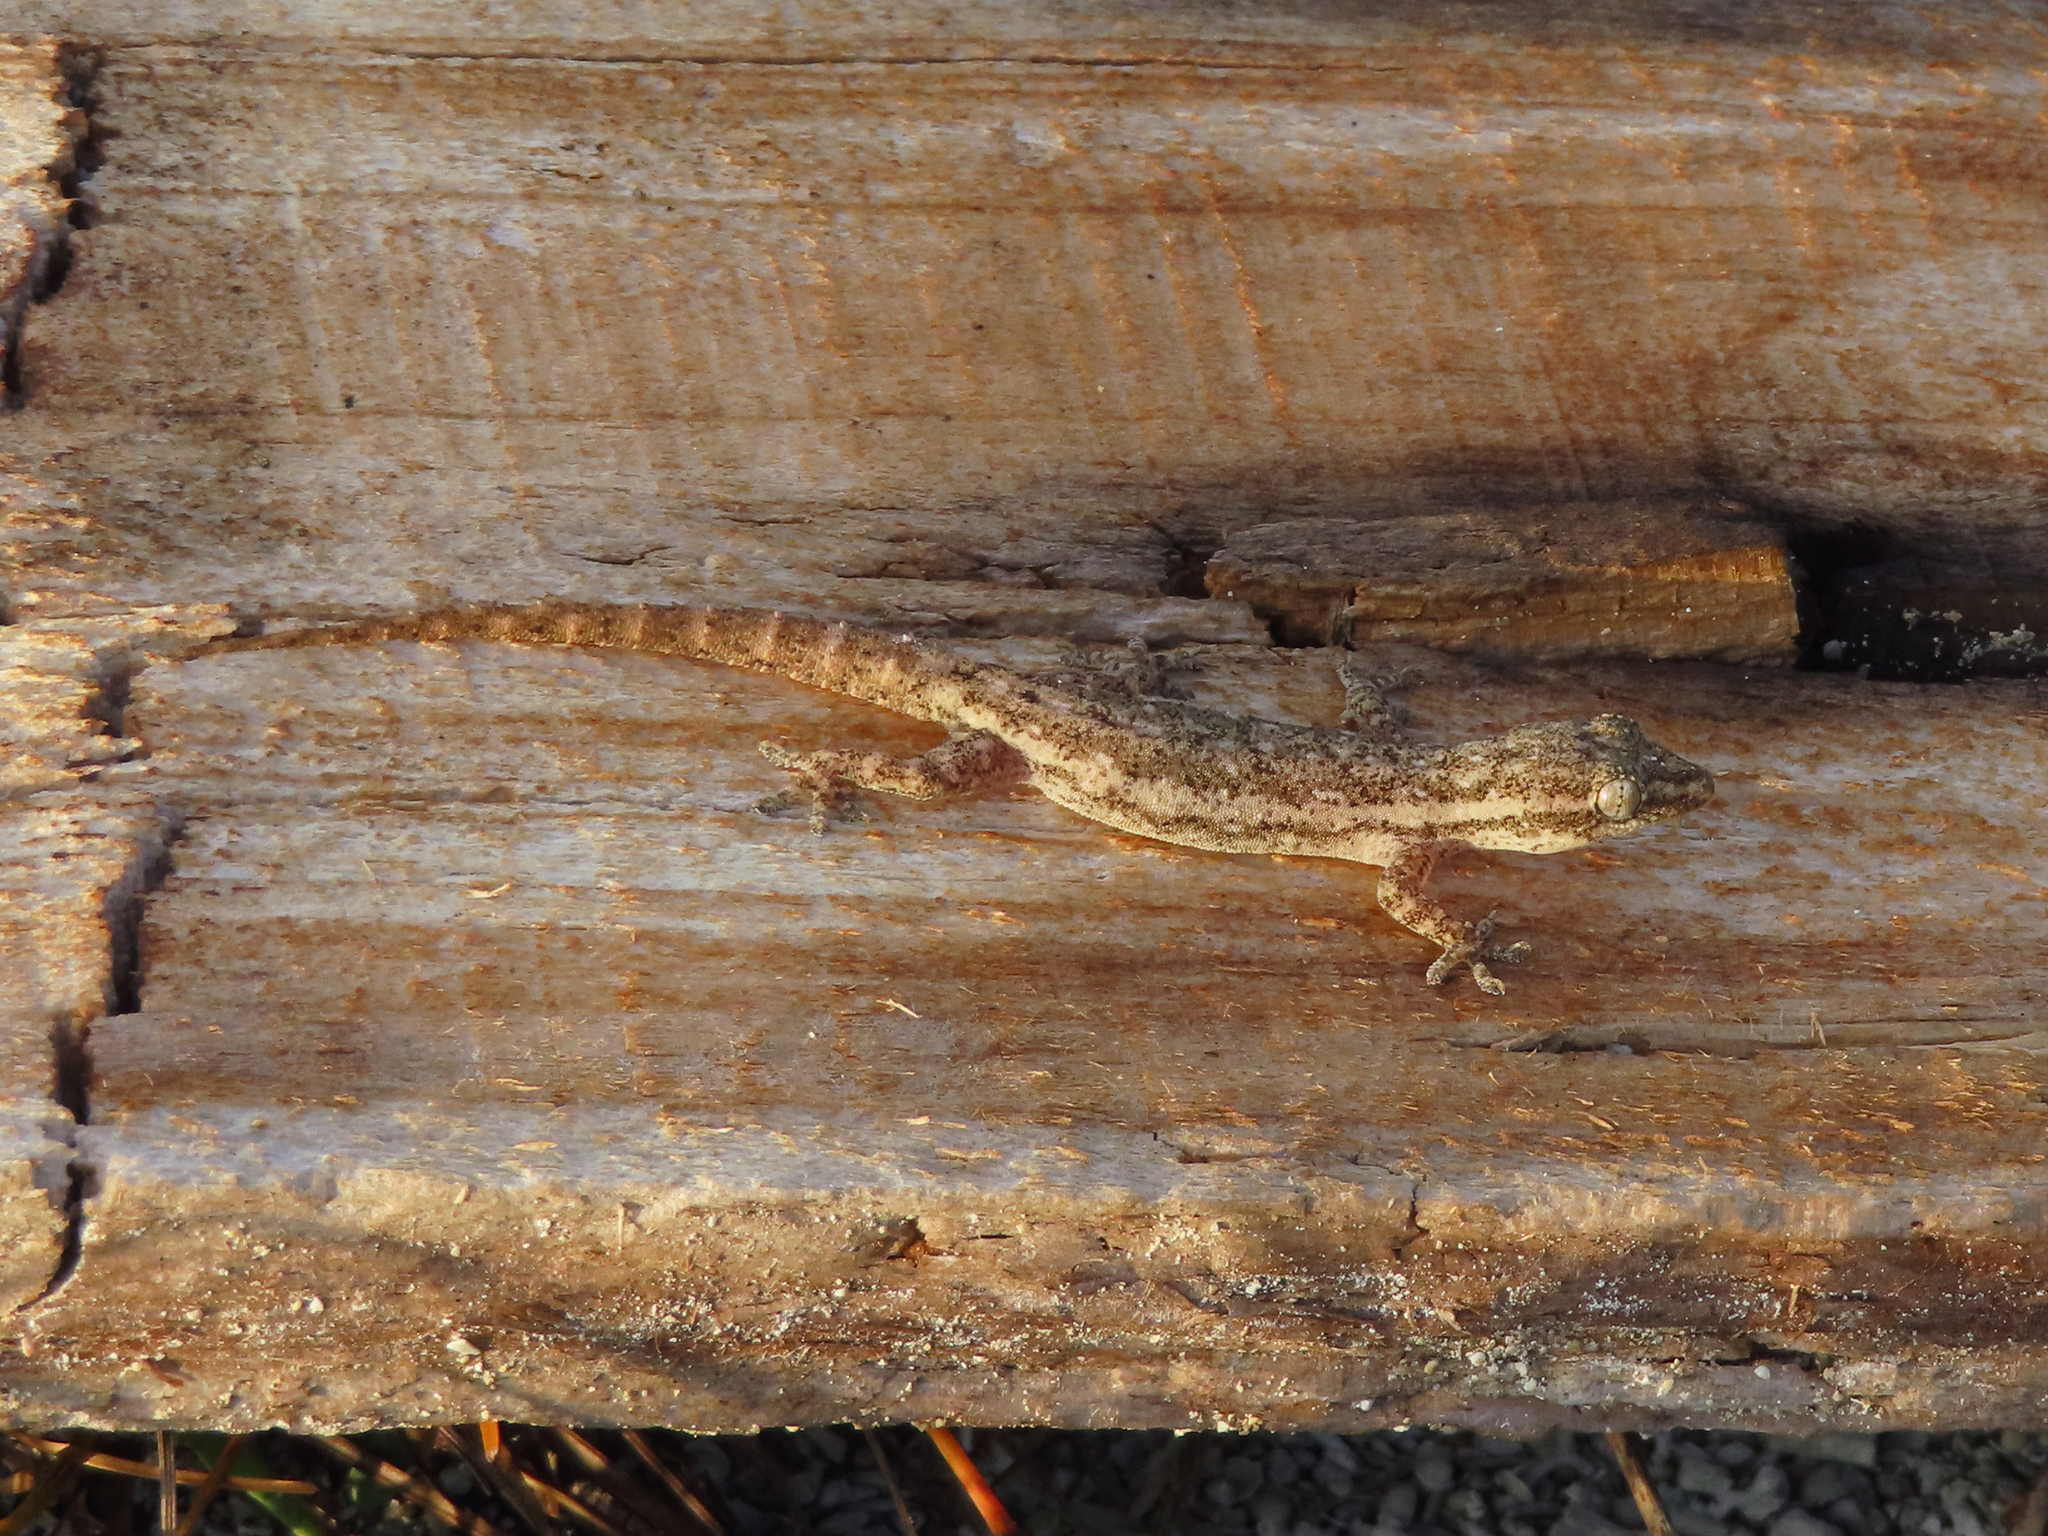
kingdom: Animalia
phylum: Chordata
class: Squamata
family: Gekkonidae
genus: Hemidactylus
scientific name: Hemidactylus frenatus
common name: Common house gecko
